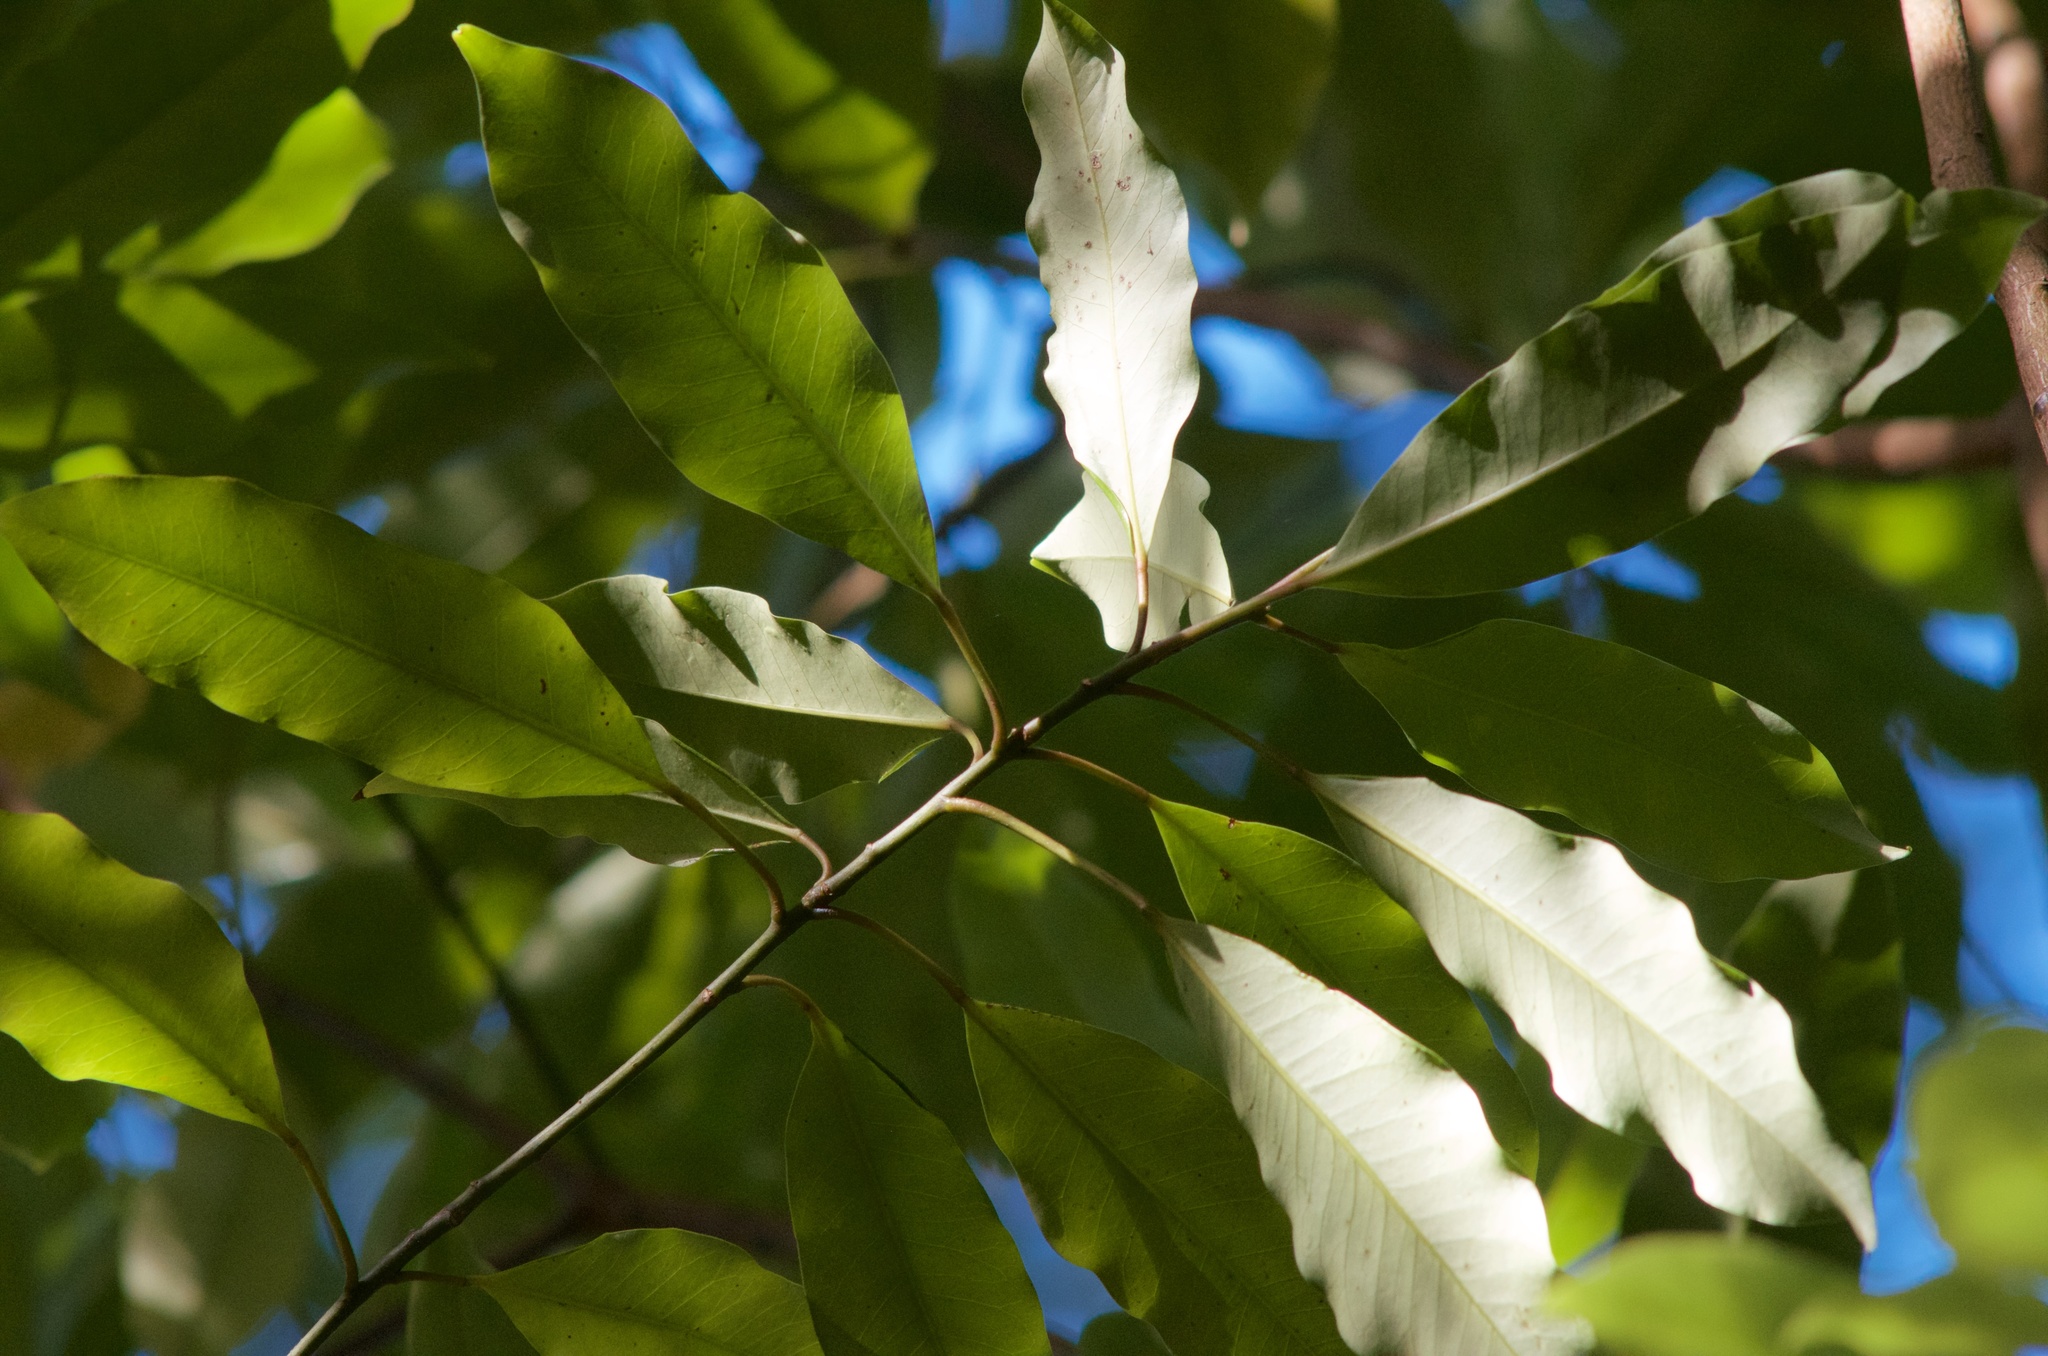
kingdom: Plantae
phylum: Tracheophyta
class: Magnoliopsida
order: Apiales
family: Araliaceae
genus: Raukaua
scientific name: Raukaua edgerleyi
